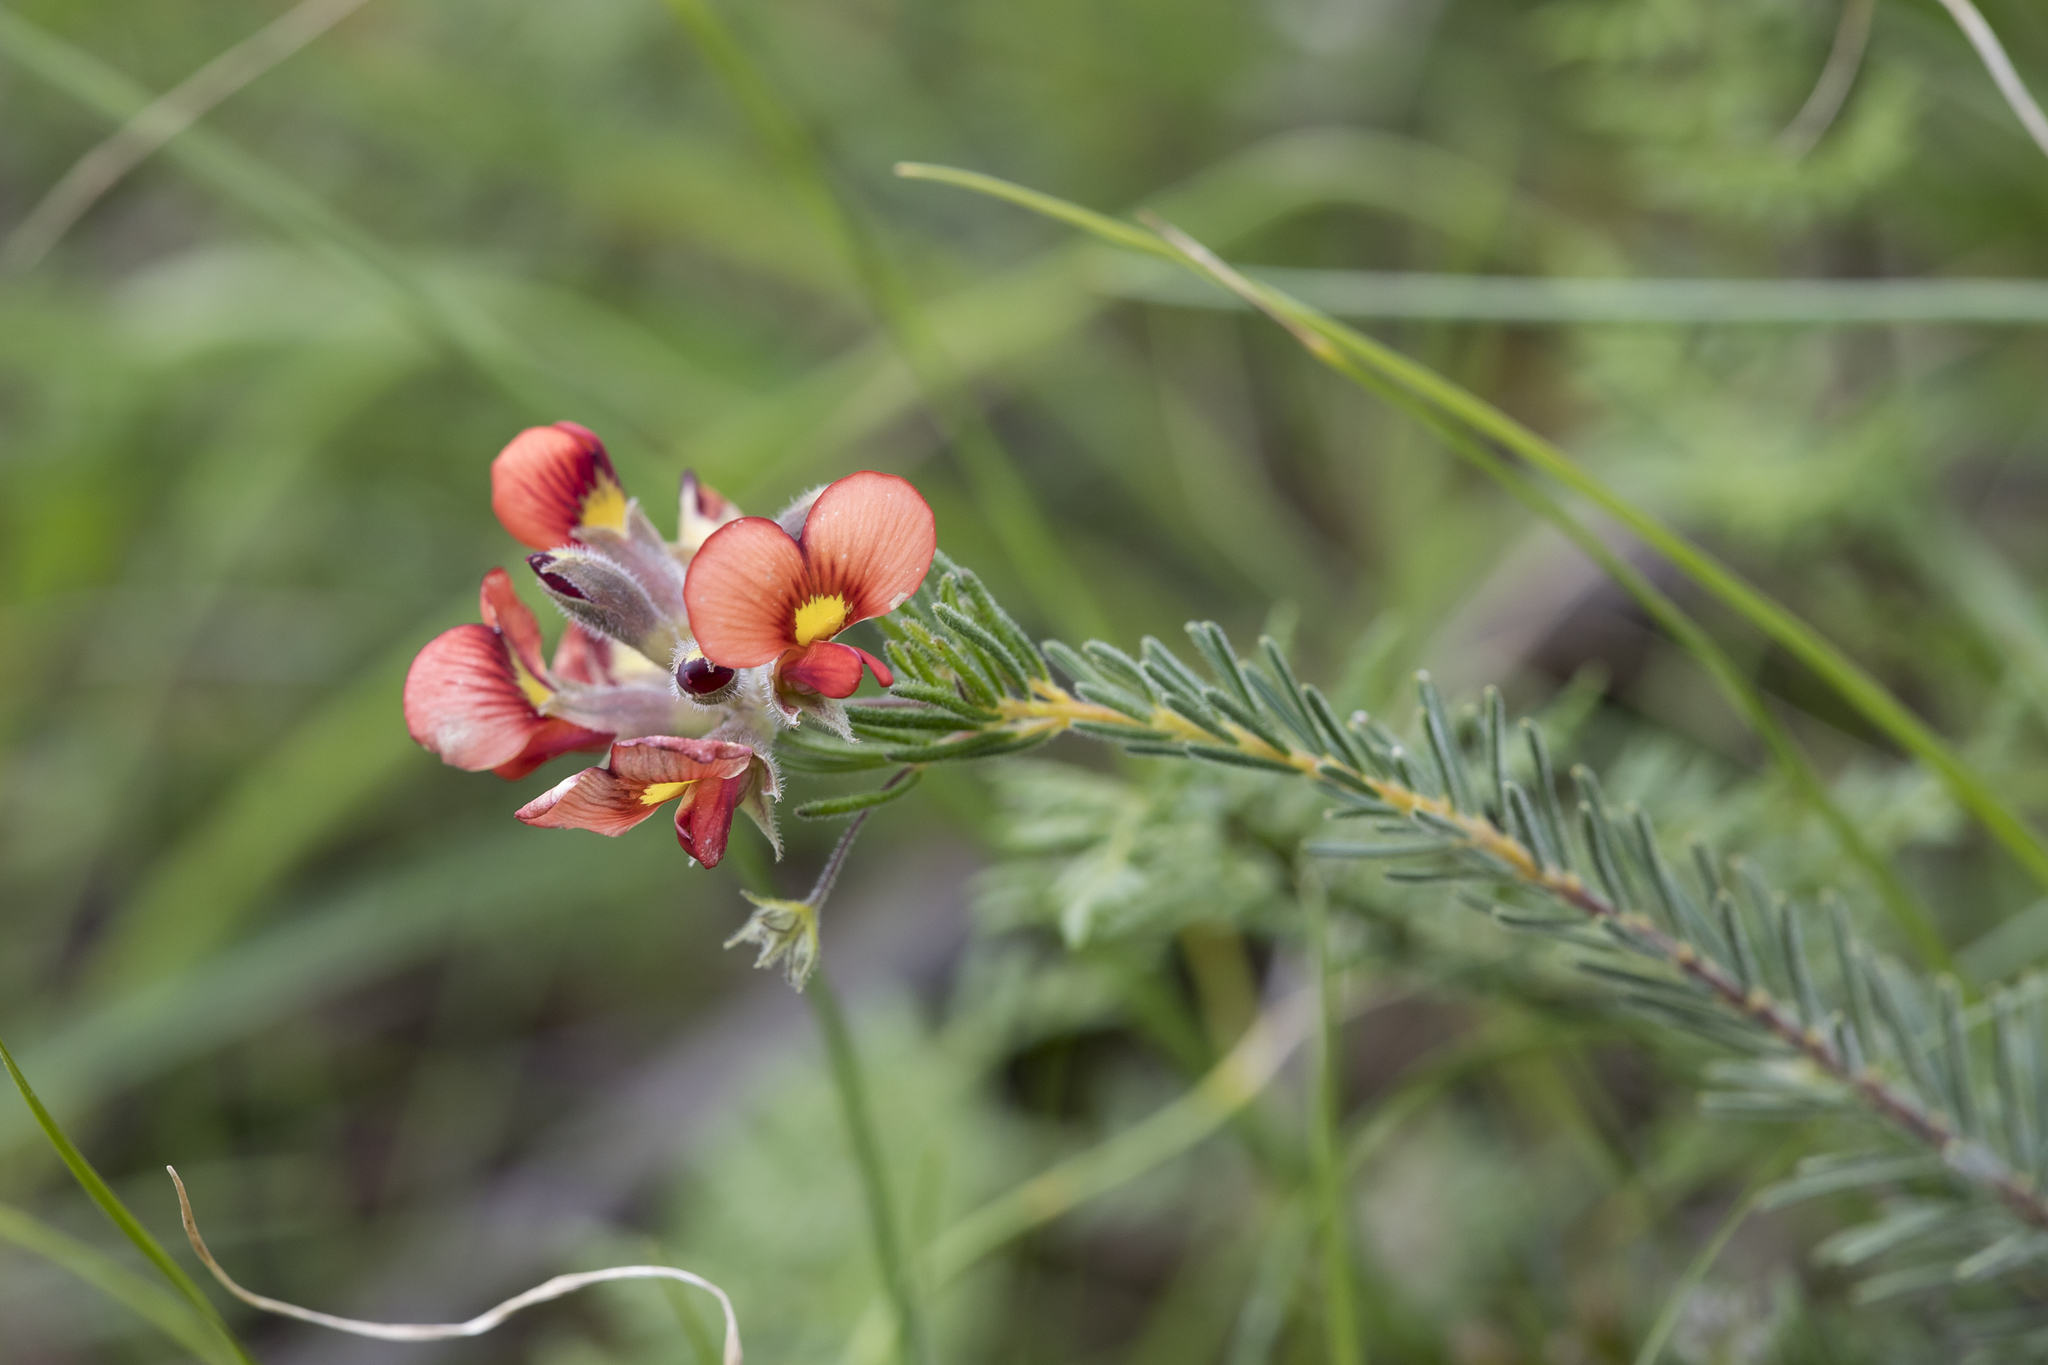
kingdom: Plantae
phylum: Tracheophyta
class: Magnoliopsida
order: Fabales
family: Fabaceae
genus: Dillwynia
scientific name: Dillwynia hispida
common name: Red parrot-pea
